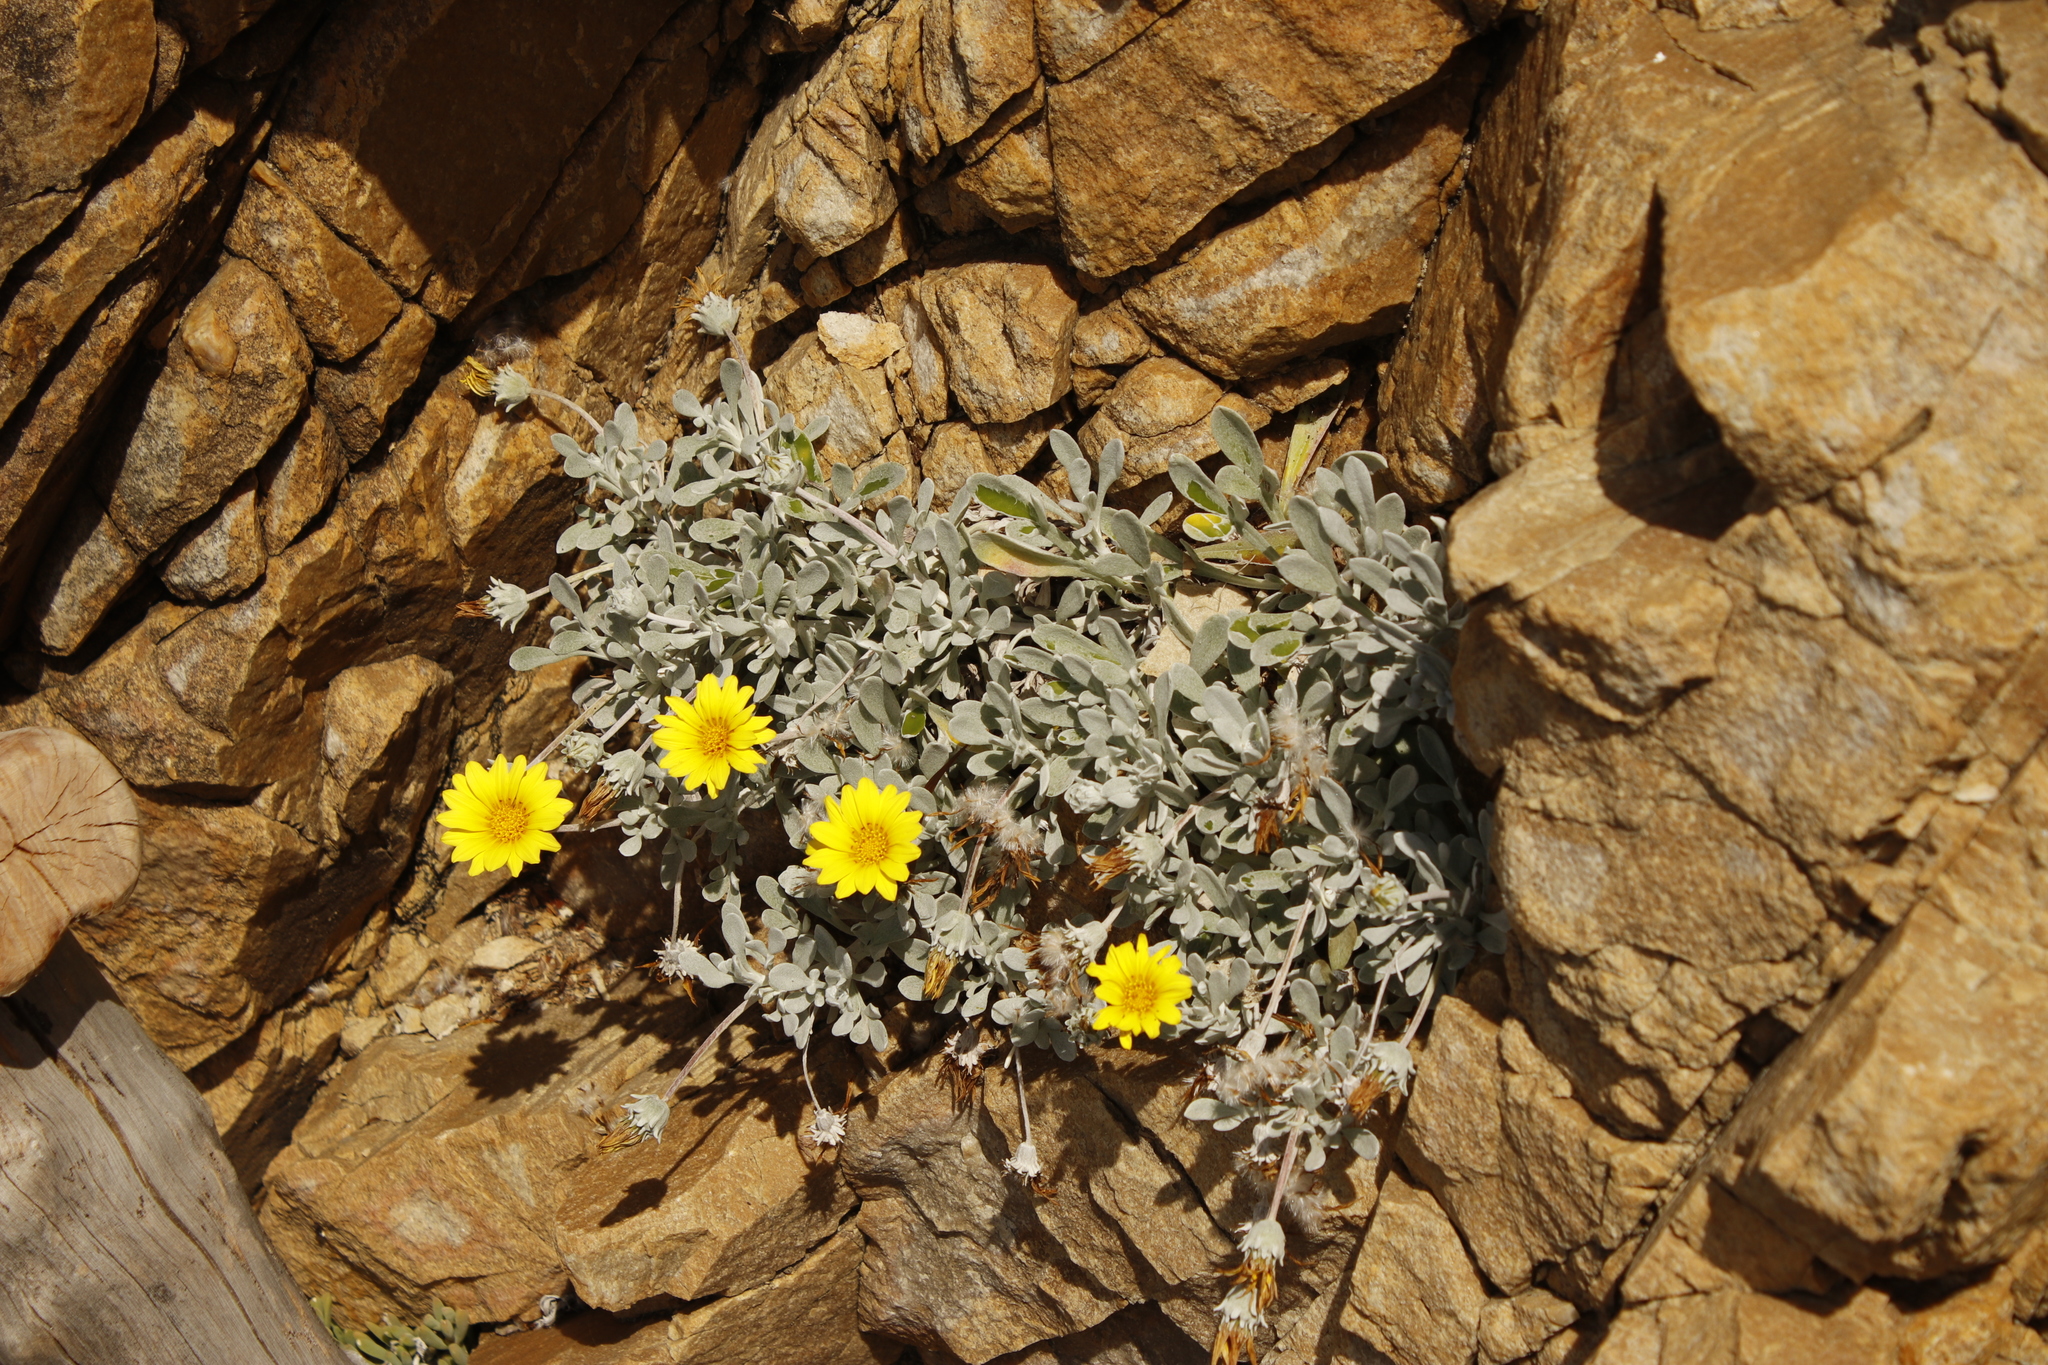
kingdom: Plantae
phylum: Tracheophyta
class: Magnoliopsida
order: Asterales
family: Asteraceae
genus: Gazania
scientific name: Gazania rigens
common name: Treasureflower
